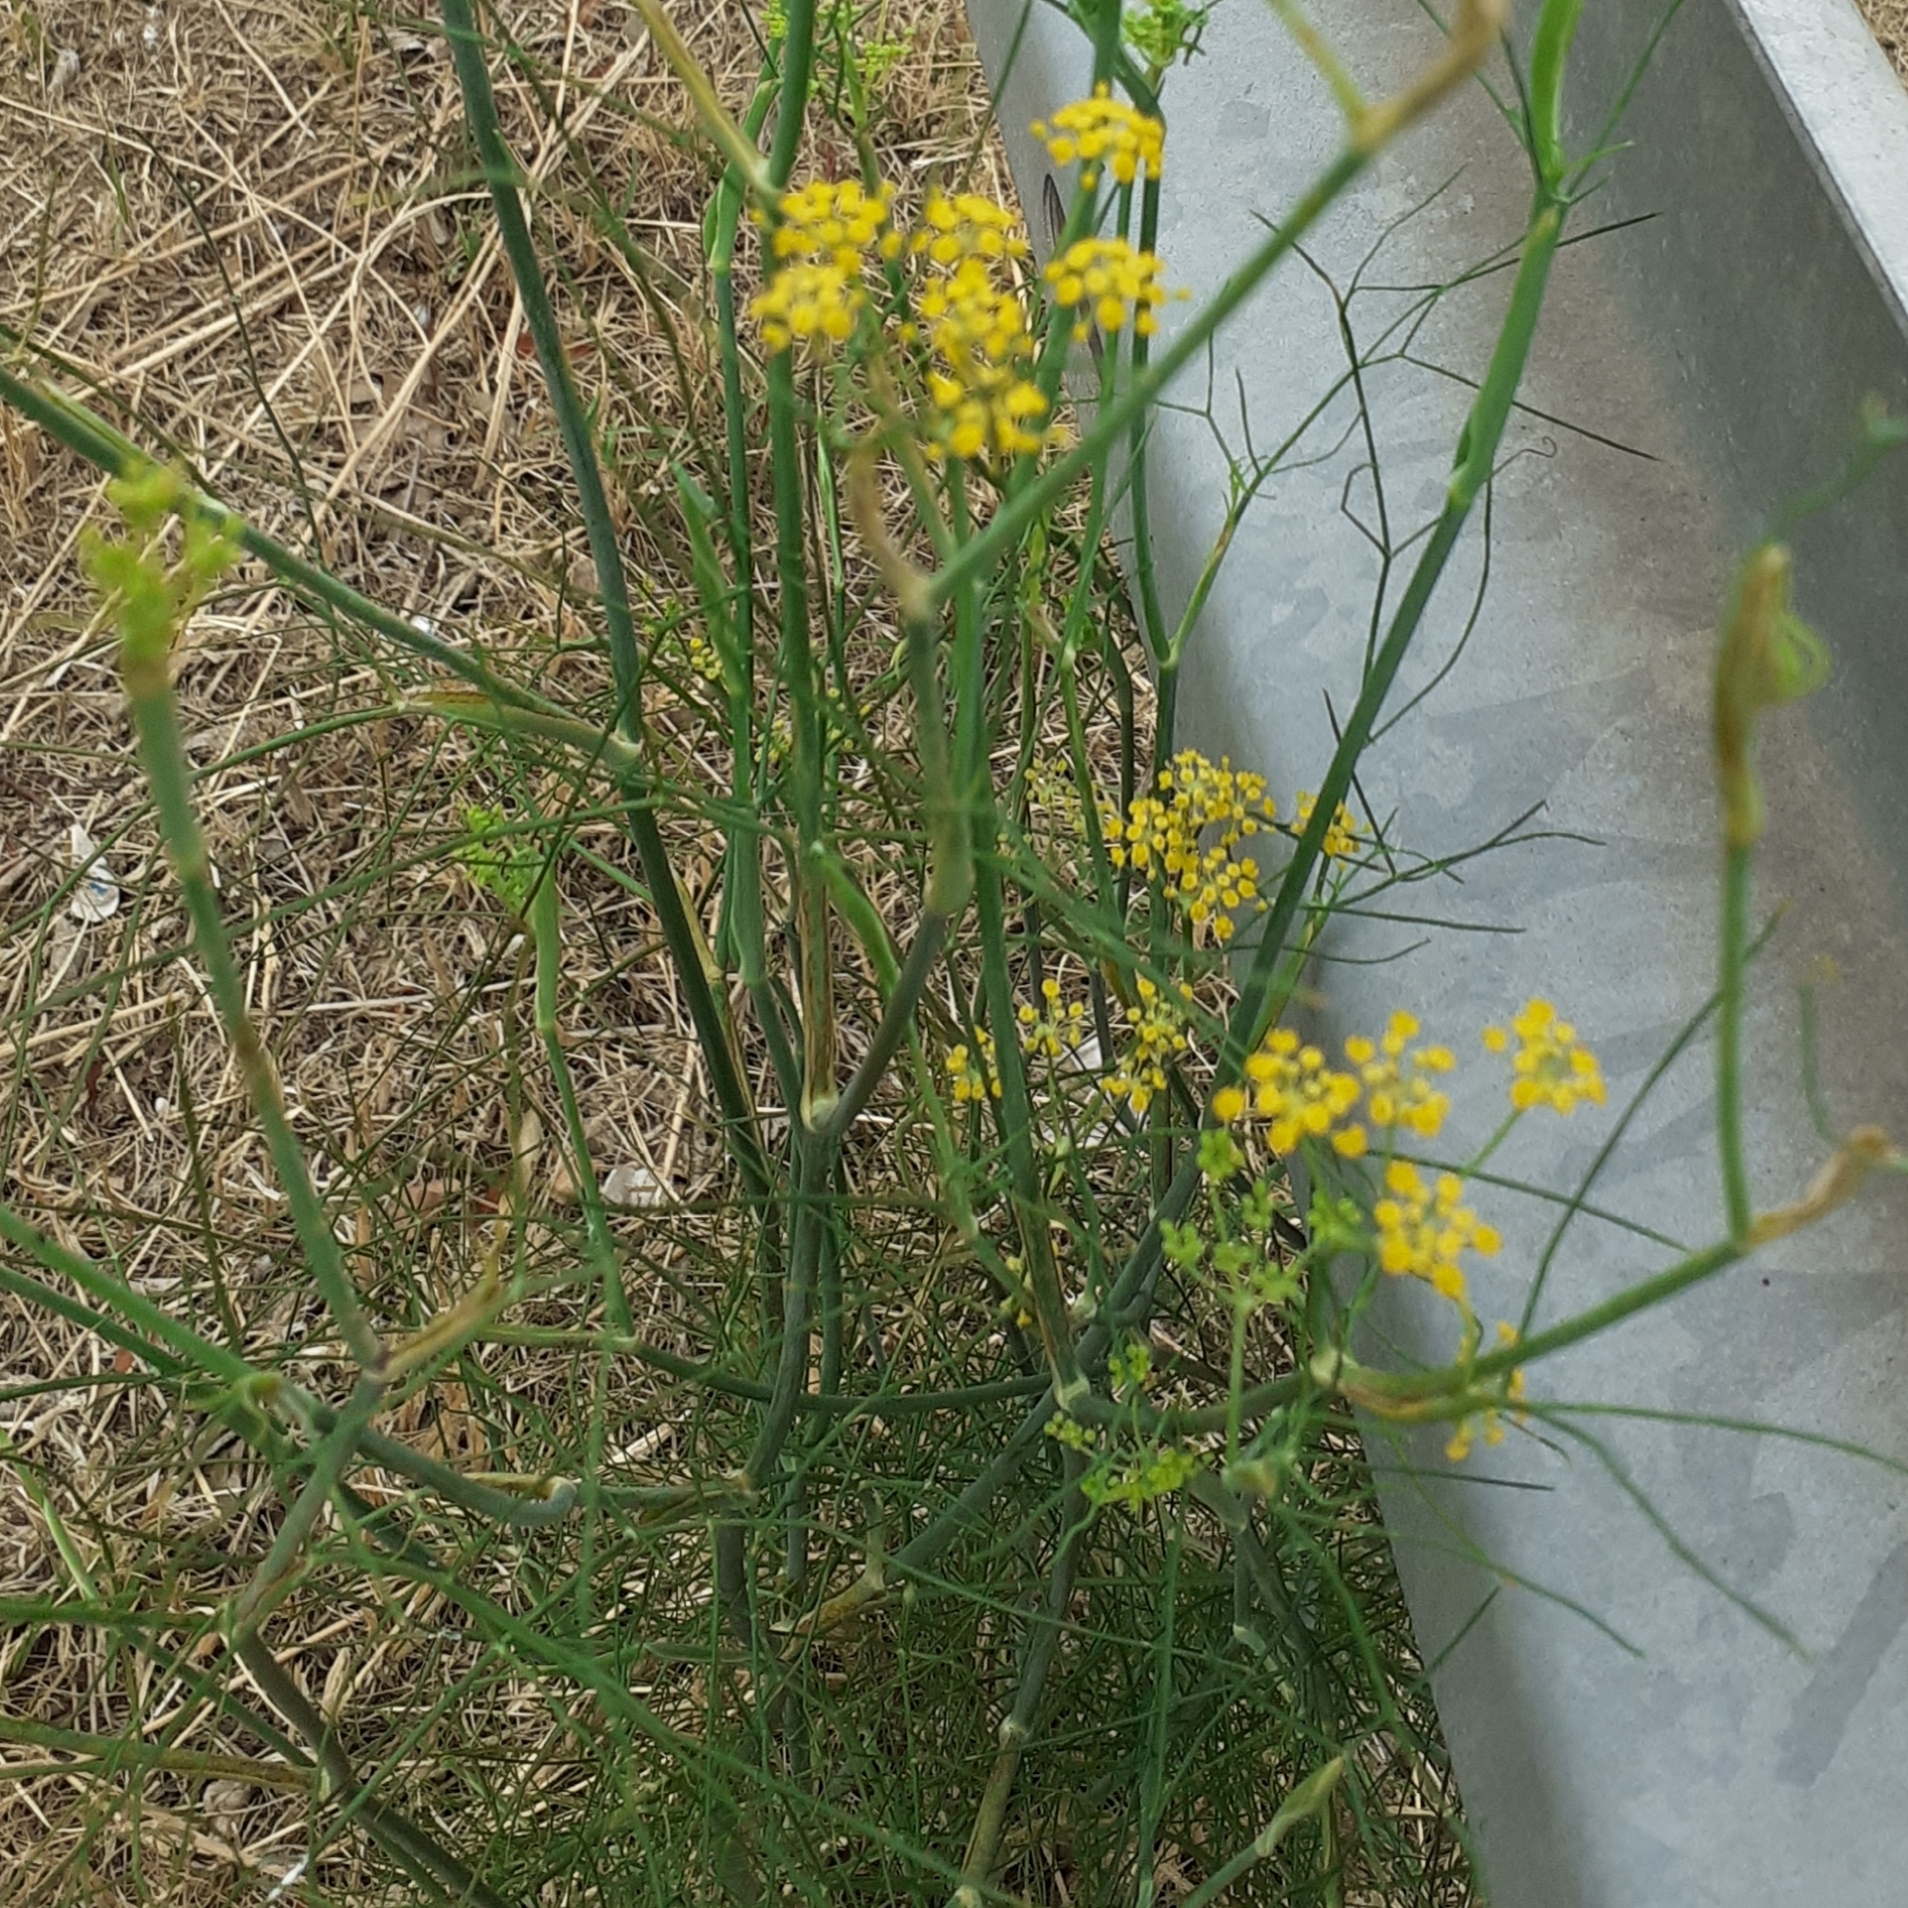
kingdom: Plantae
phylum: Tracheophyta
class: Magnoliopsida
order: Apiales
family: Apiaceae
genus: Foeniculum
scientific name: Foeniculum vulgare
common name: Fennel
